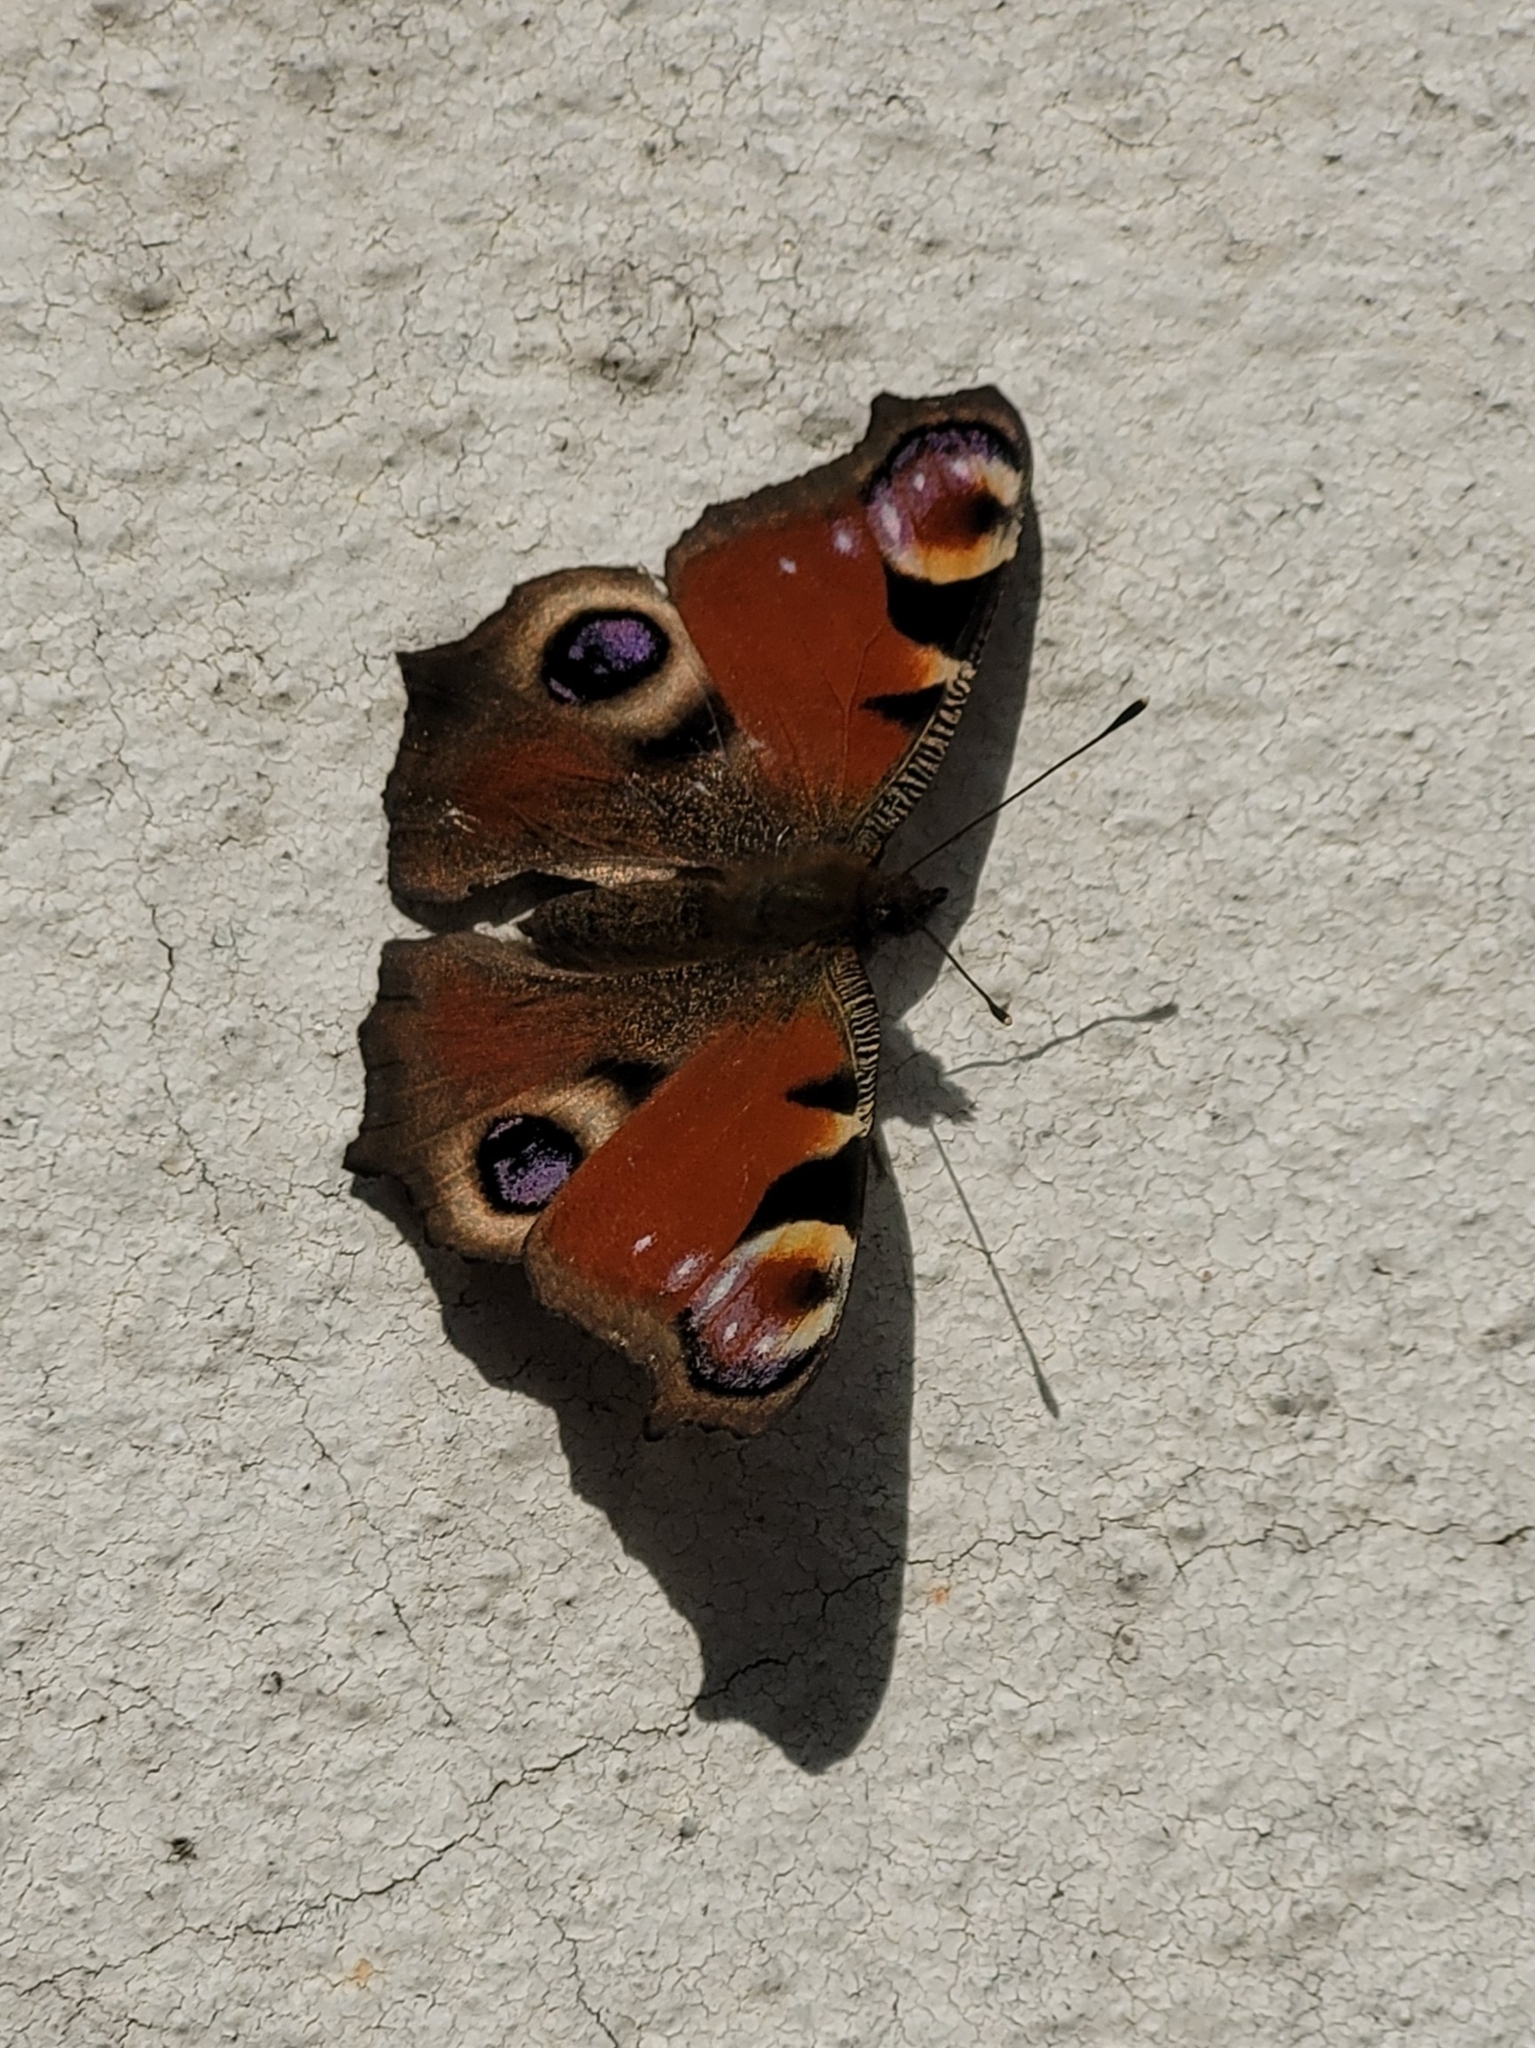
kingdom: Animalia
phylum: Arthropoda
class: Insecta
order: Lepidoptera
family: Nymphalidae
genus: Aglais
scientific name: Aglais io
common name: Peacock
